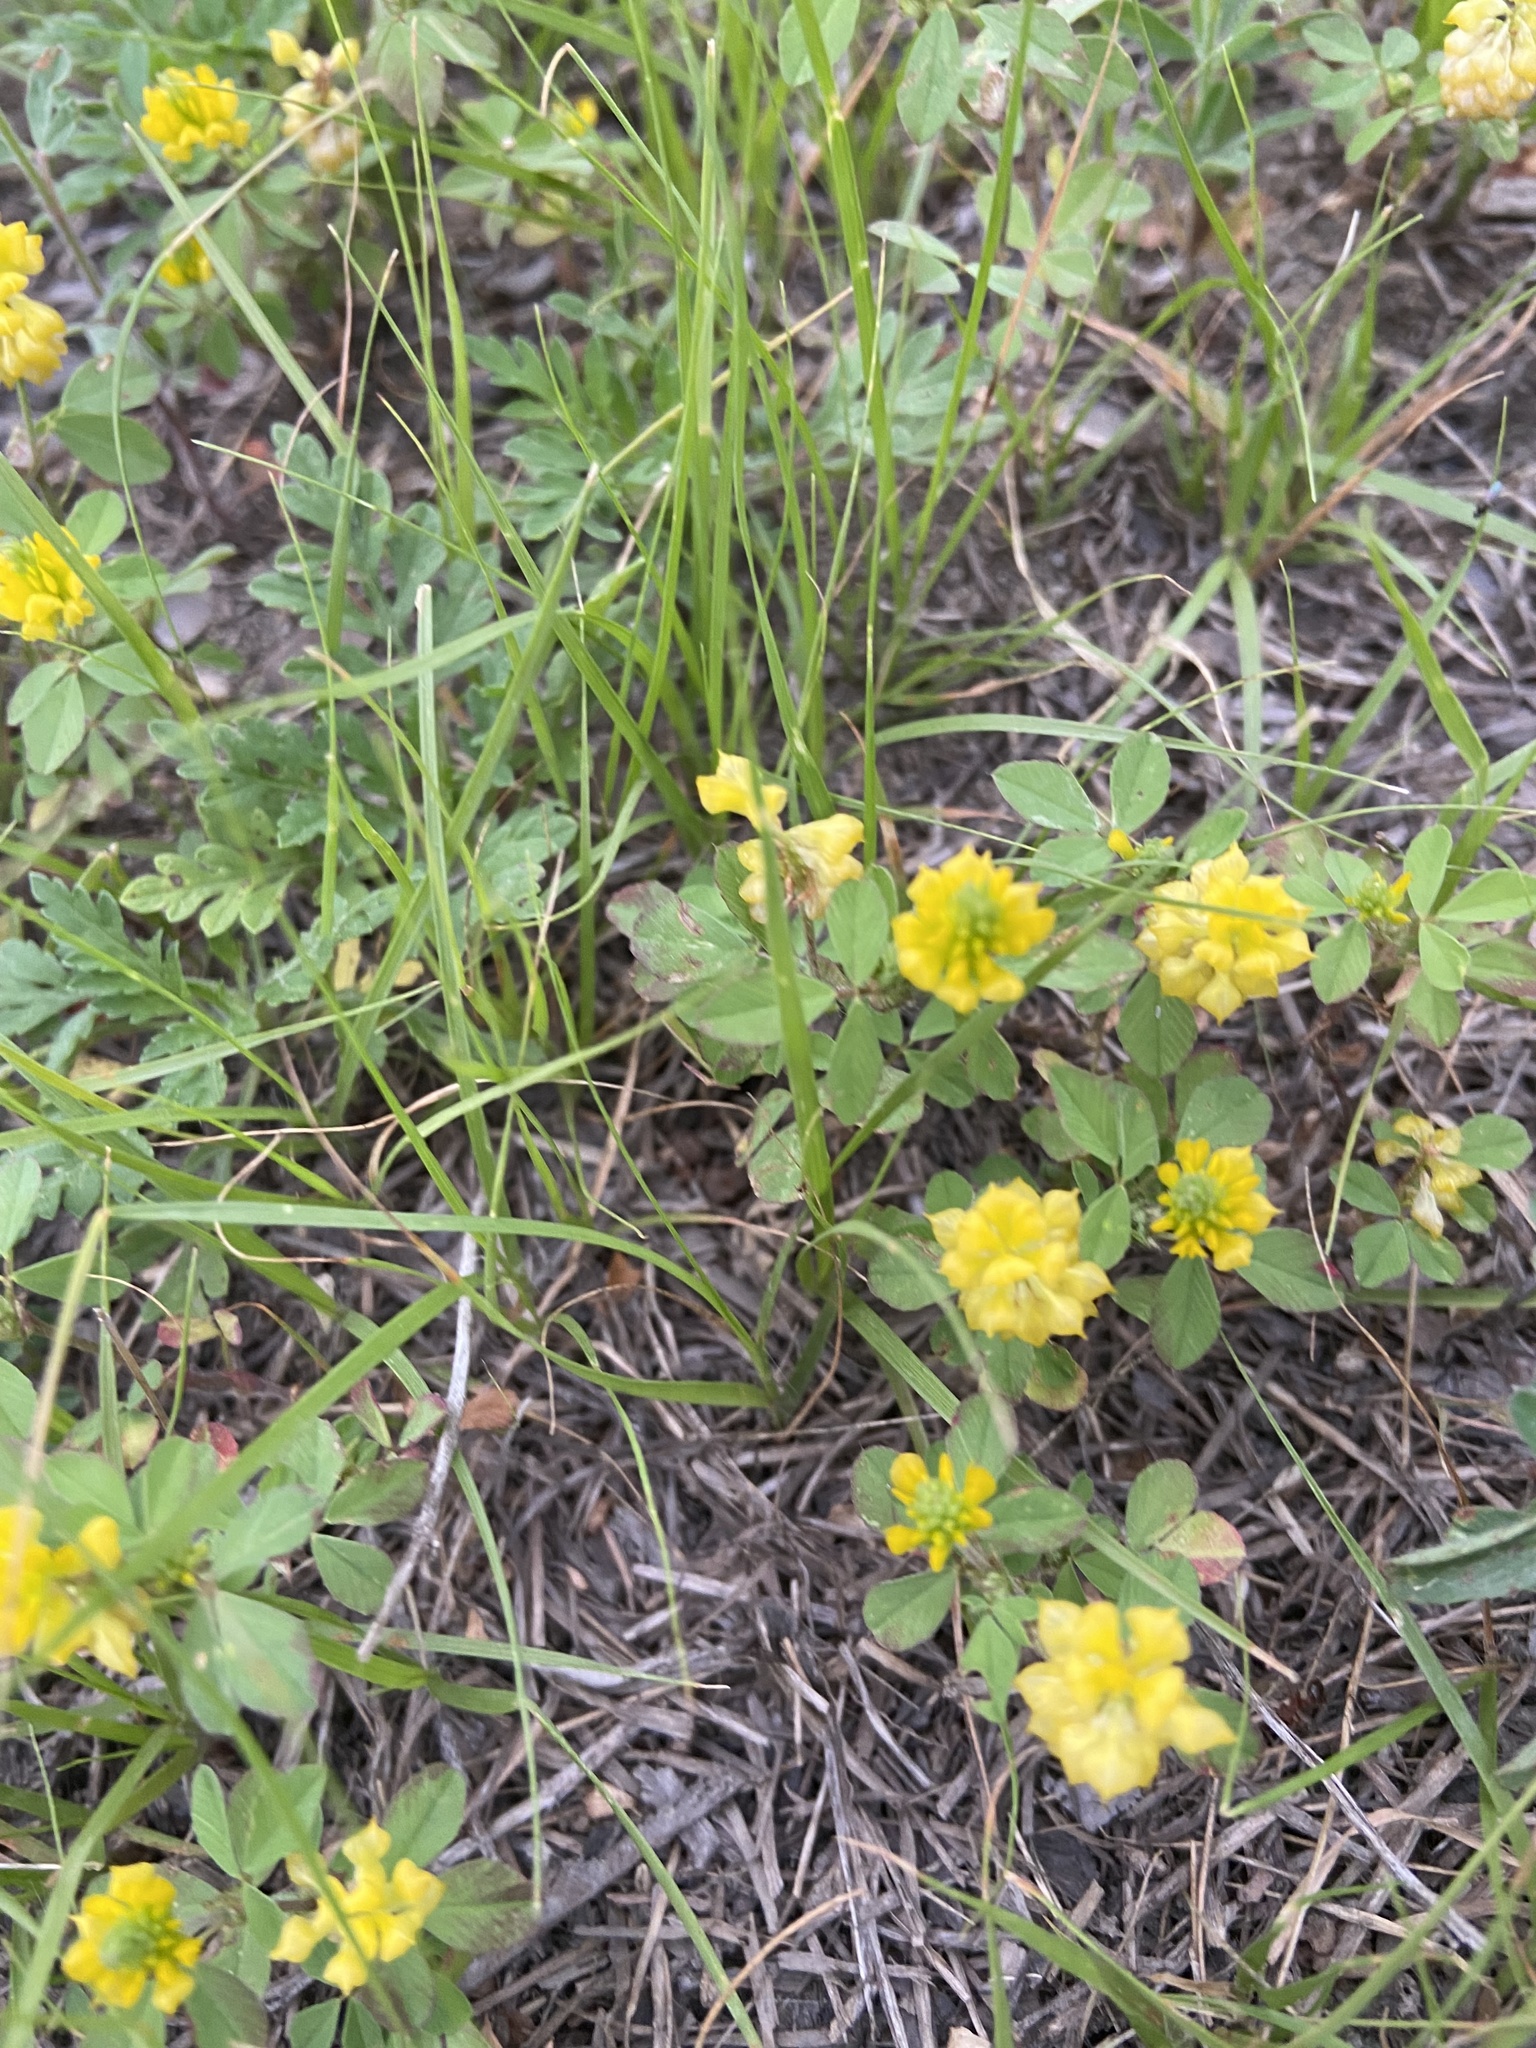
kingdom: Plantae
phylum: Tracheophyta
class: Magnoliopsida
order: Fabales
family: Fabaceae
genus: Trifolium
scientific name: Trifolium campestre
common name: Field clover
